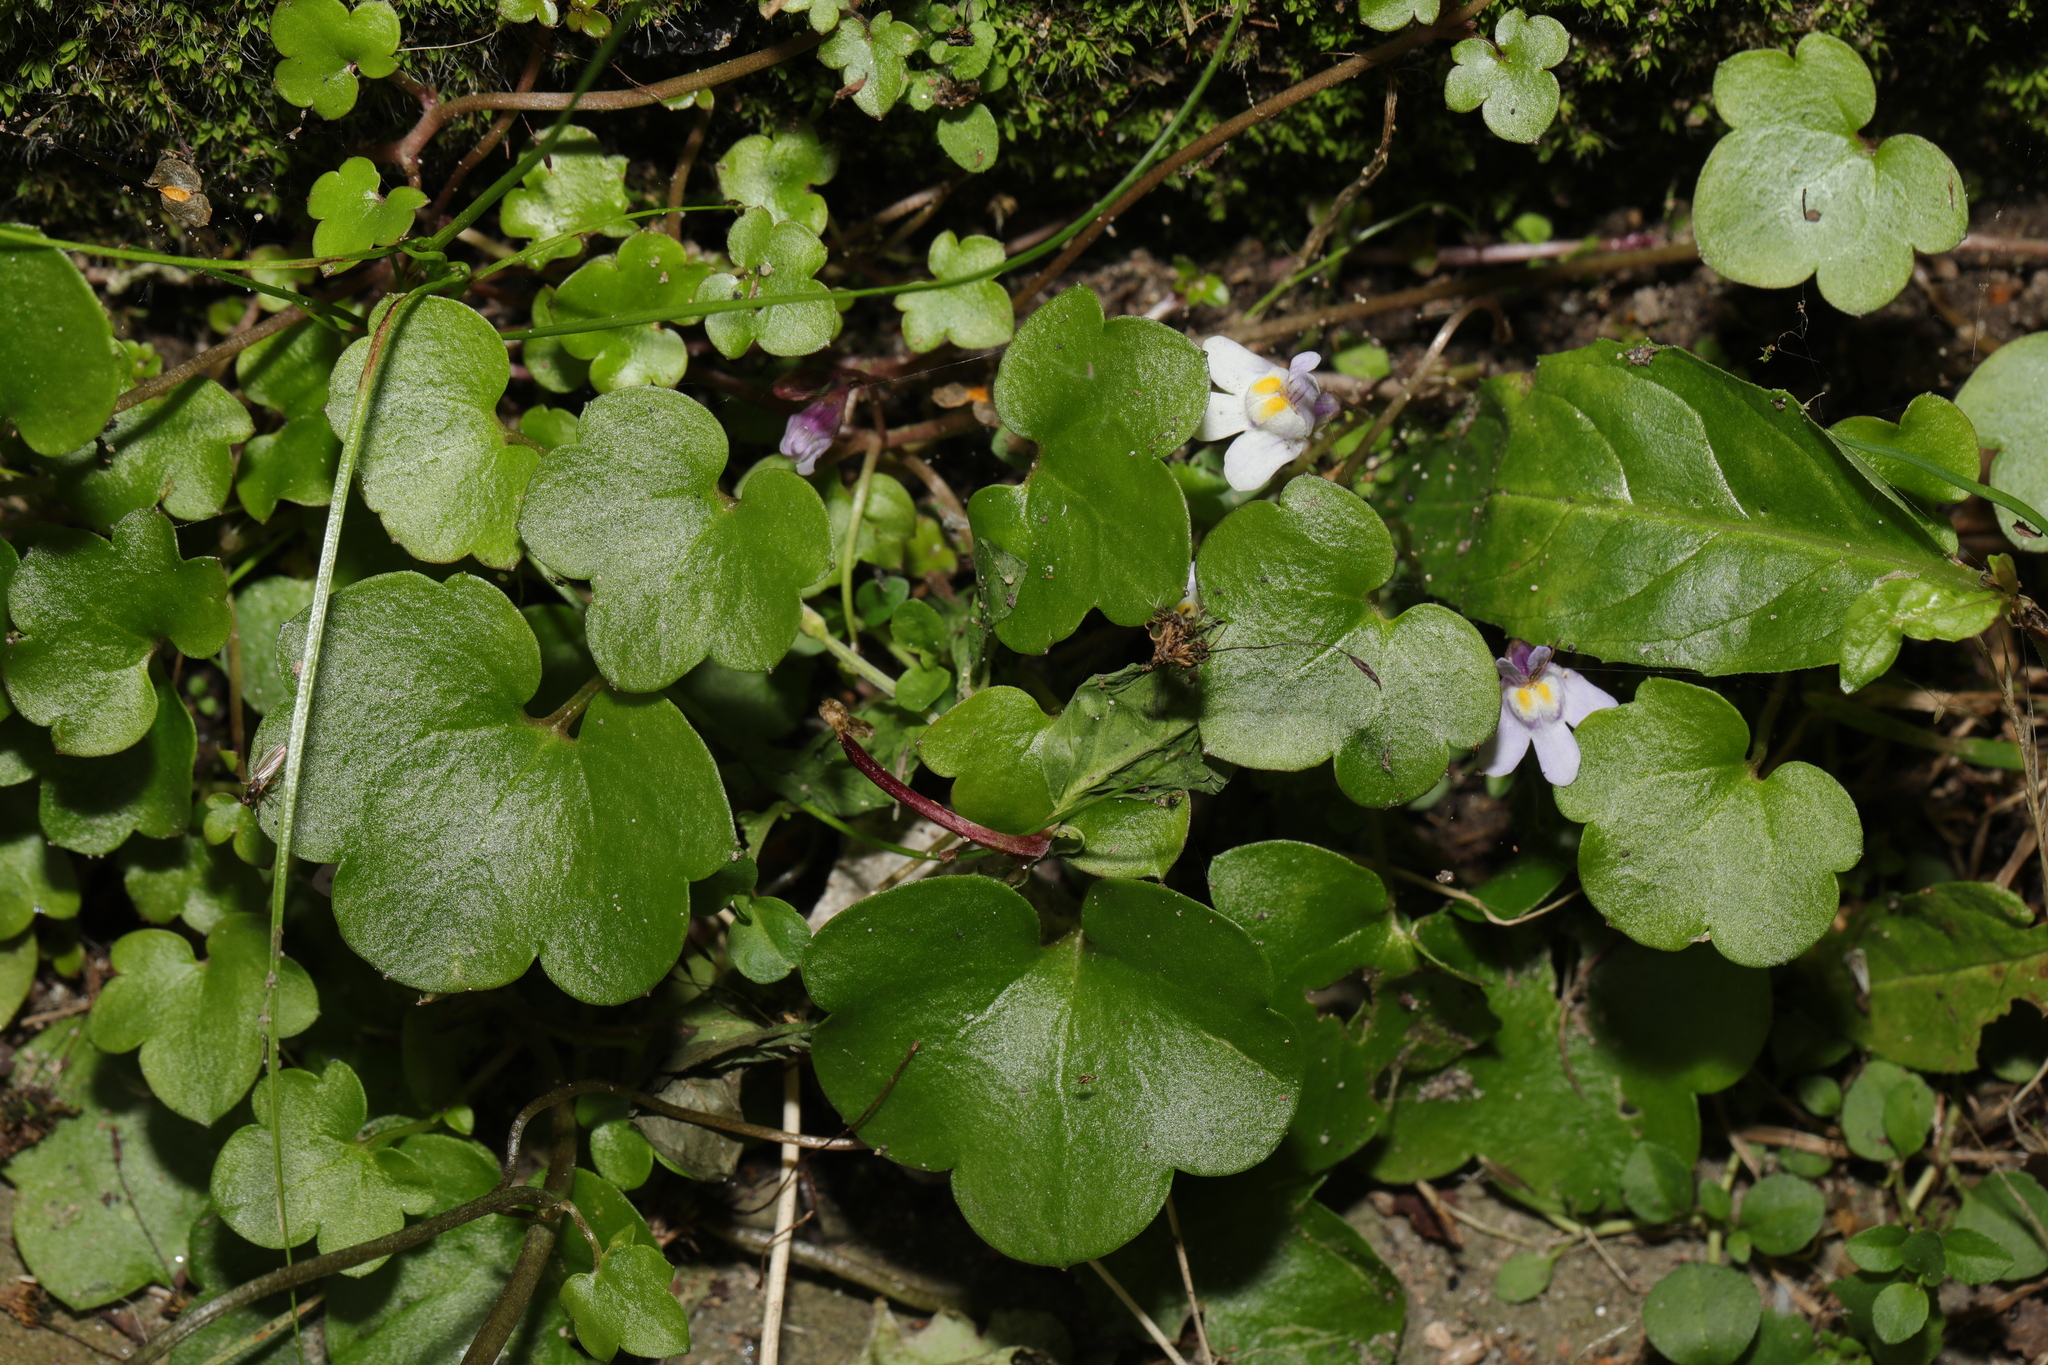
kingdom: Plantae
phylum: Tracheophyta
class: Magnoliopsida
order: Lamiales
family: Plantaginaceae
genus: Cymbalaria
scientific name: Cymbalaria muralis
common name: Ivy-leaved toadflax
